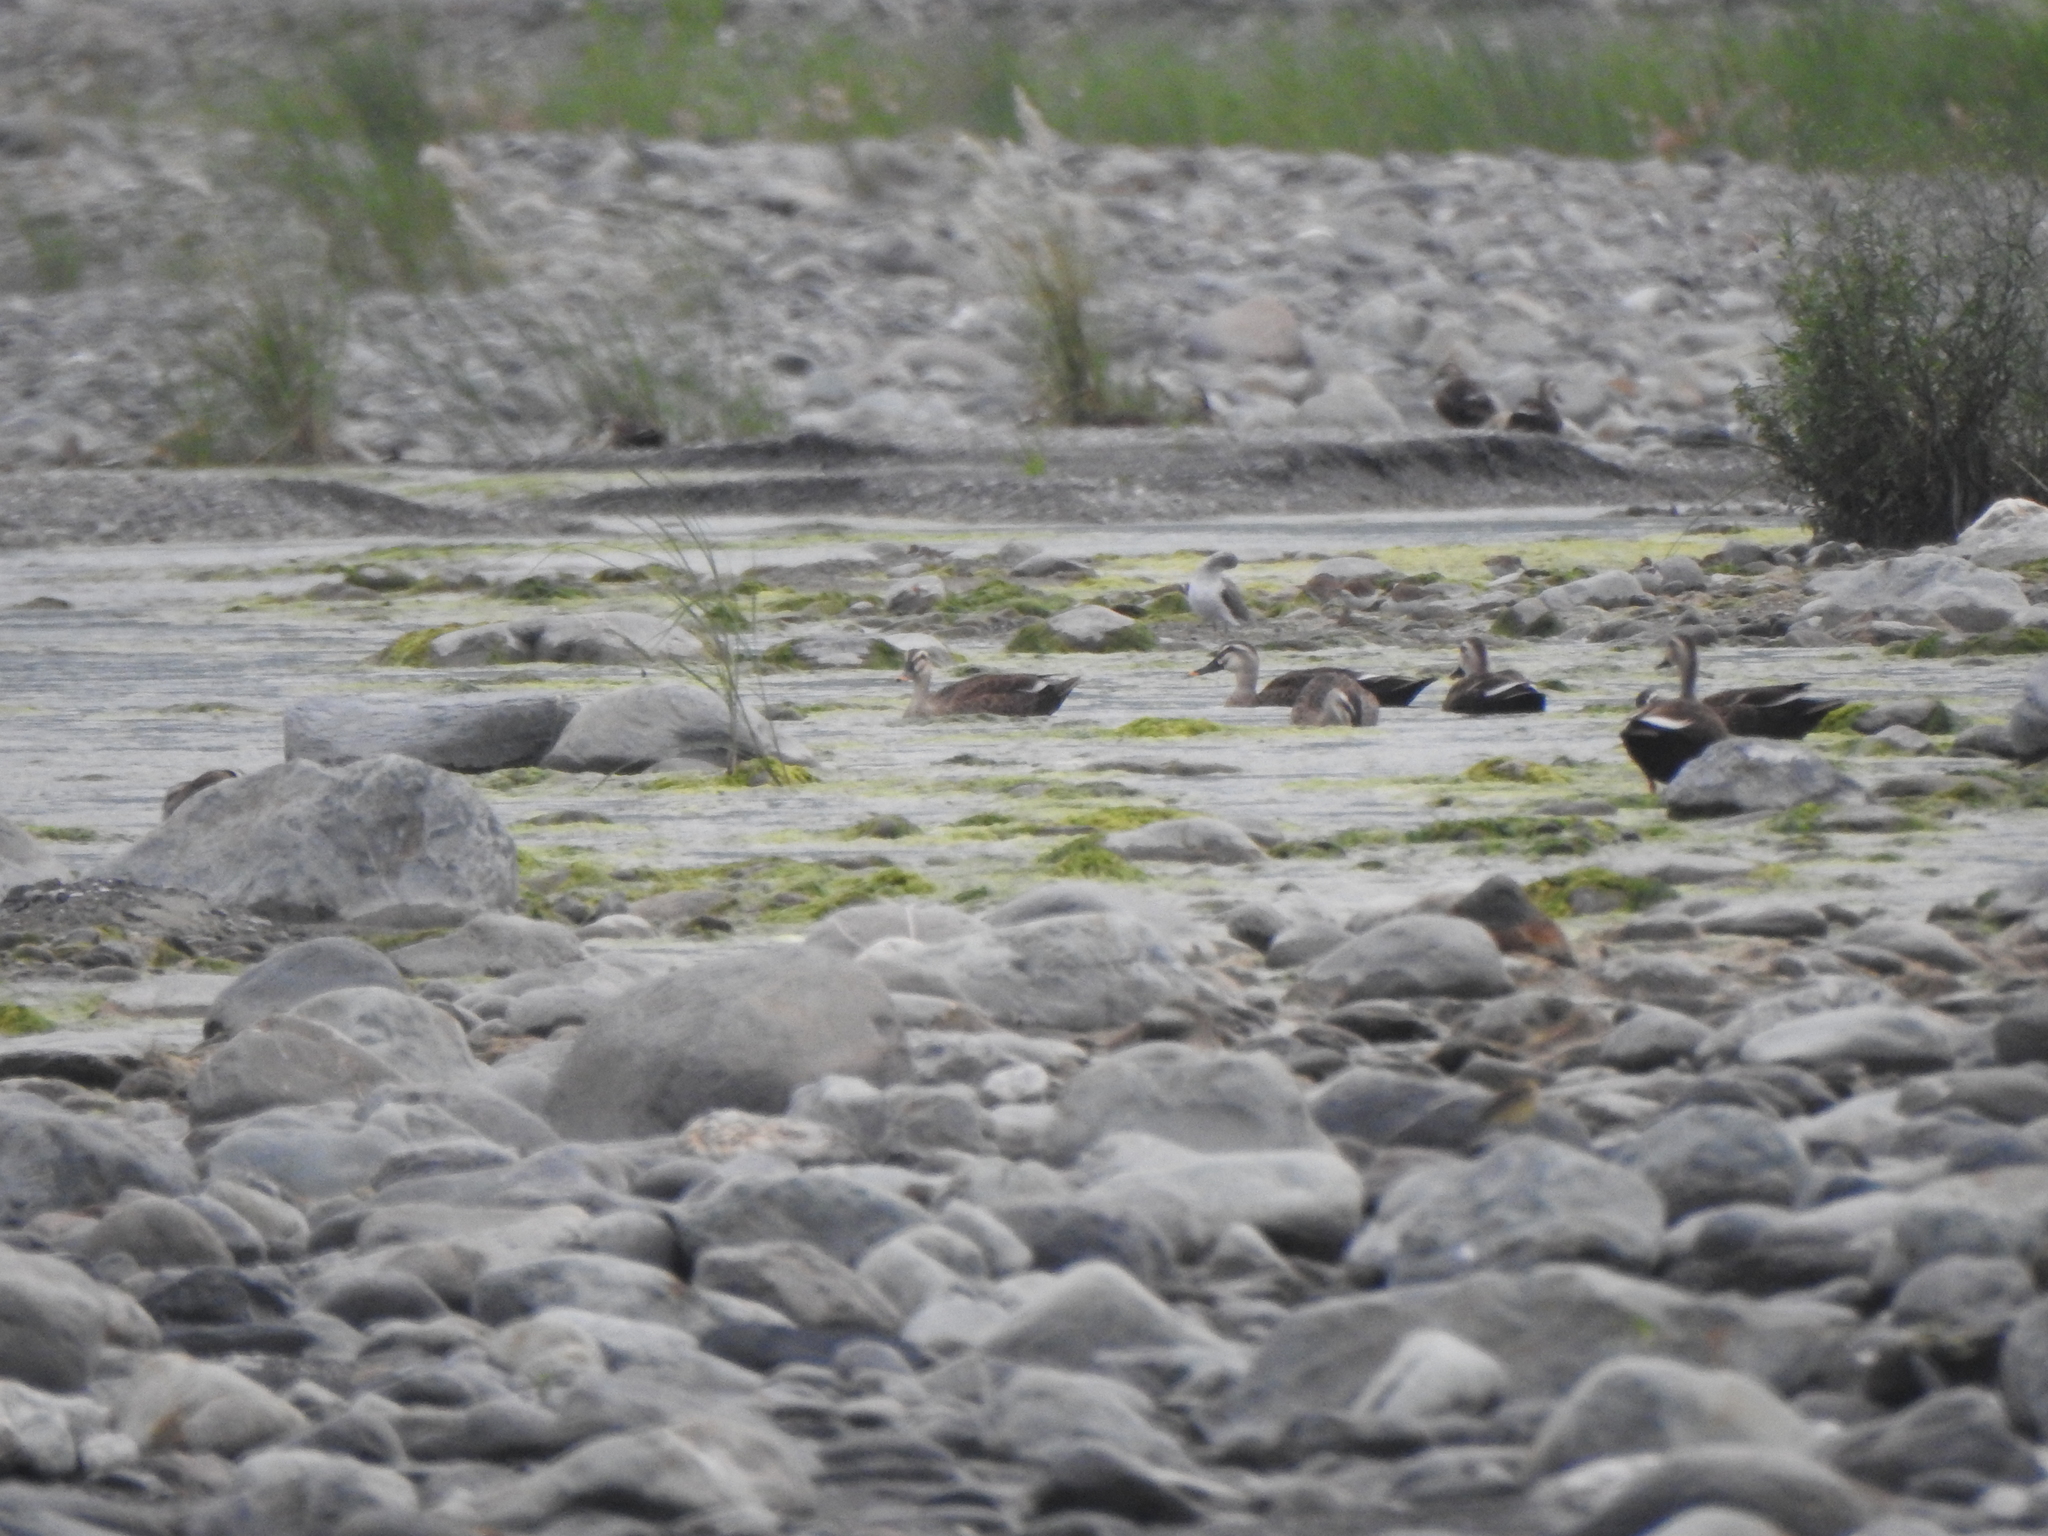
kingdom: Animalia
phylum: Chordata
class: Aves
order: Anseriformes
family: Anatidae
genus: Anas
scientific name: Anas zonorhyncha
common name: Eastern spot-billed duck
